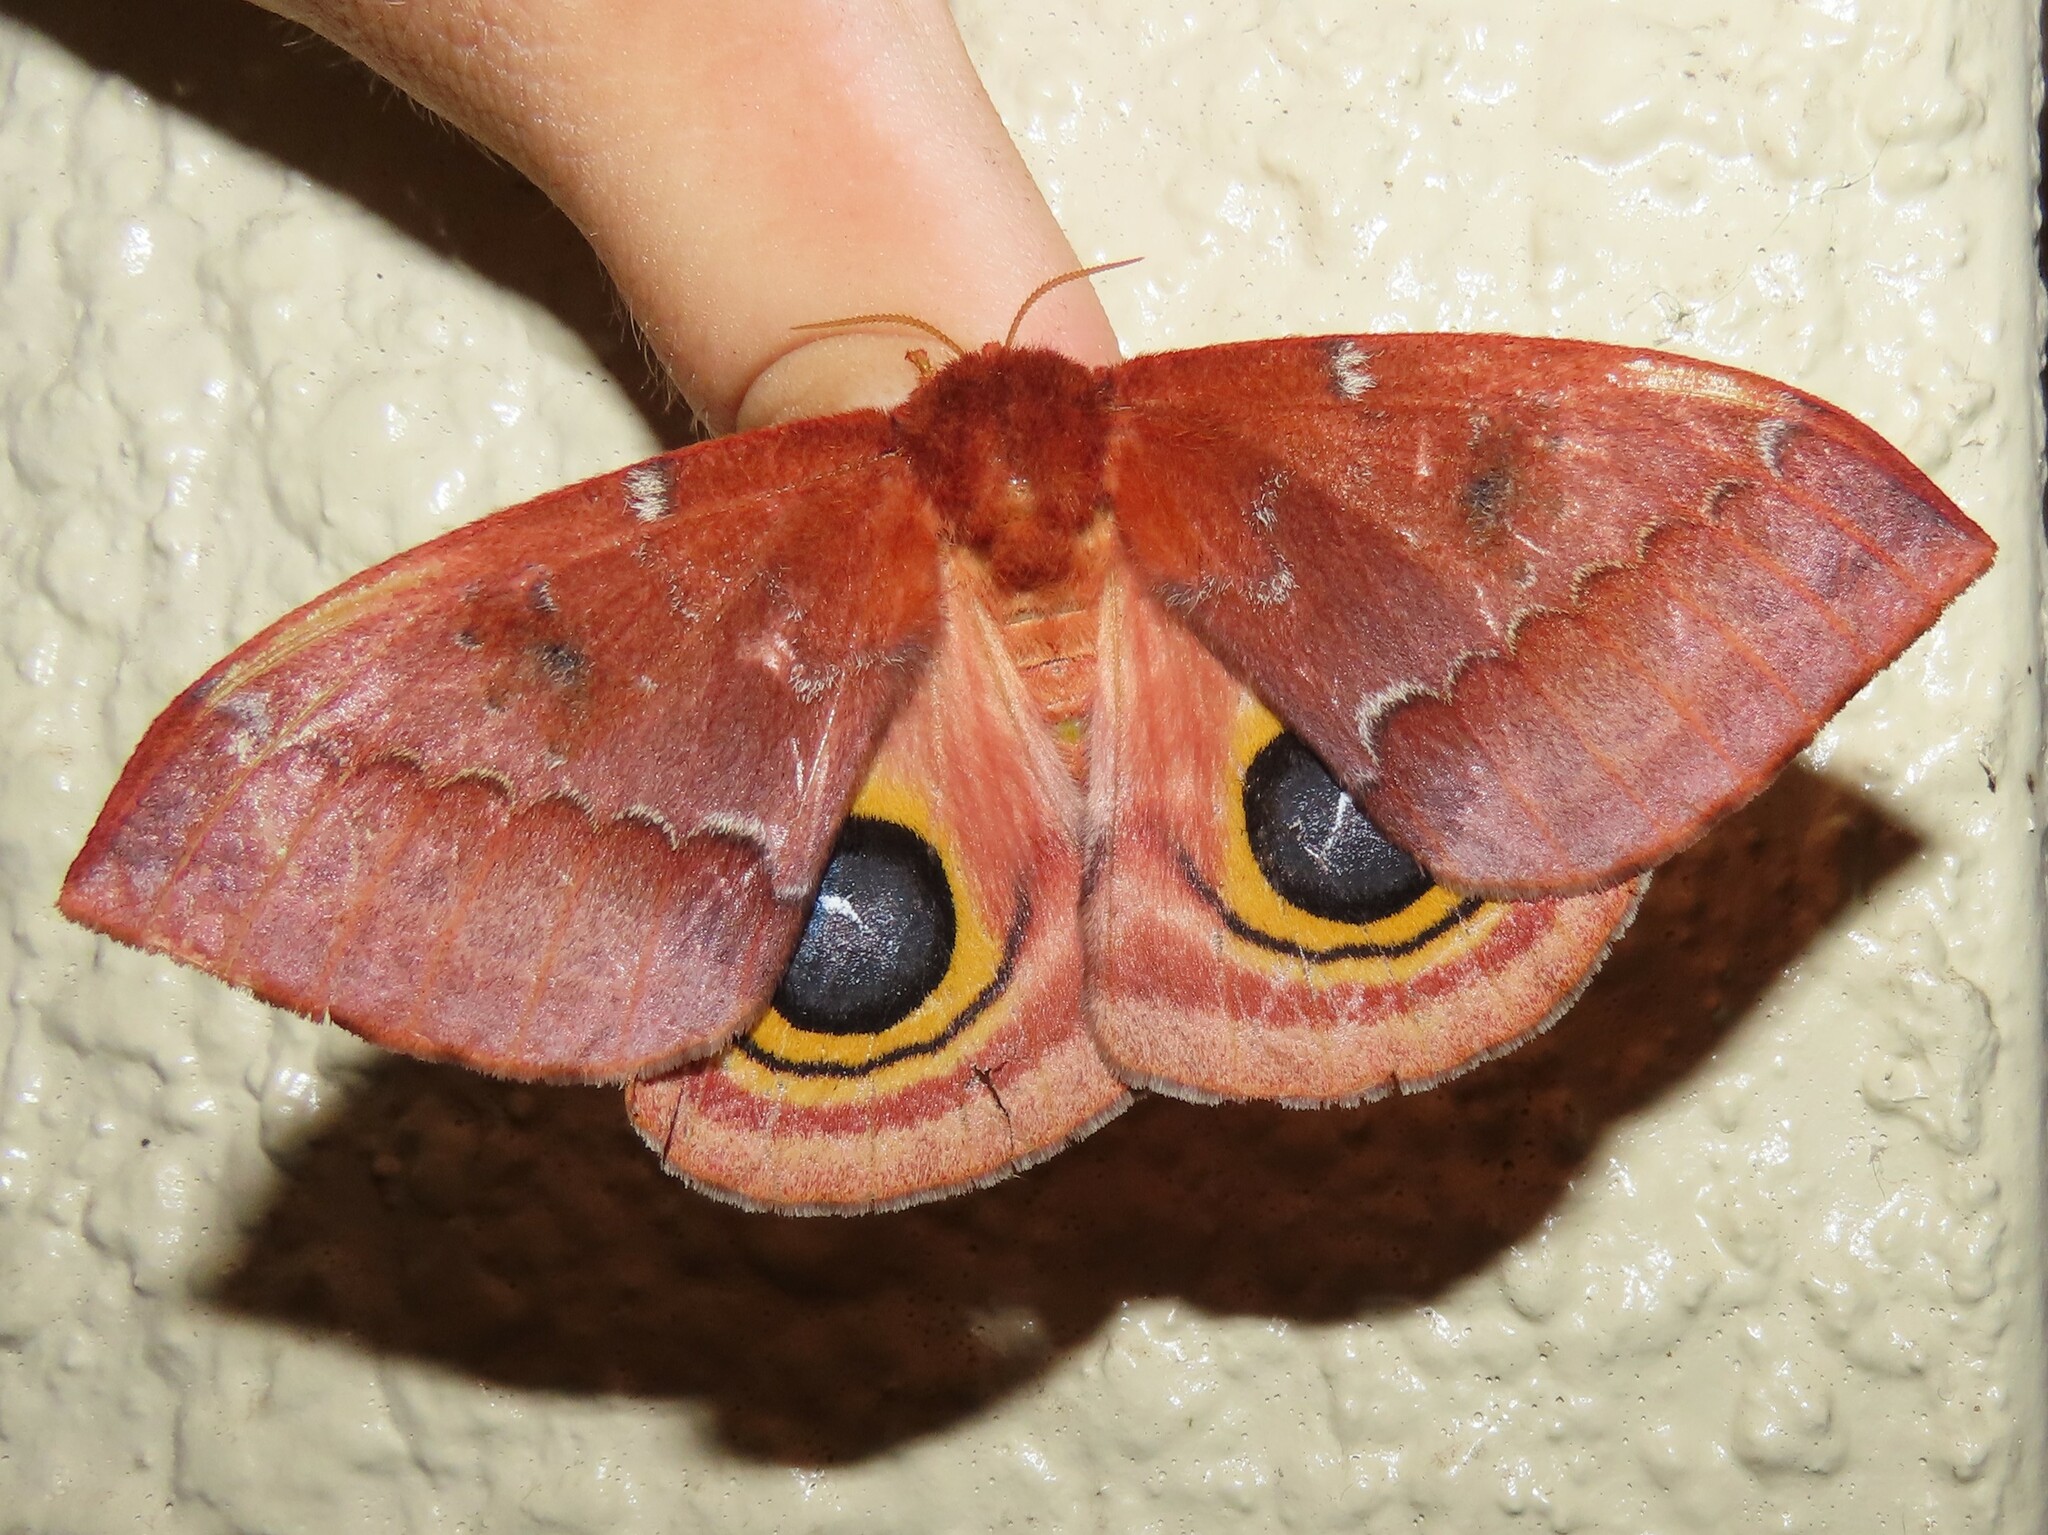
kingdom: Animalia
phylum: Arthropoda
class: Insecta
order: Lepidoptera
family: Saturniidae
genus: Automeris
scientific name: Automeris io
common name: Io moth
